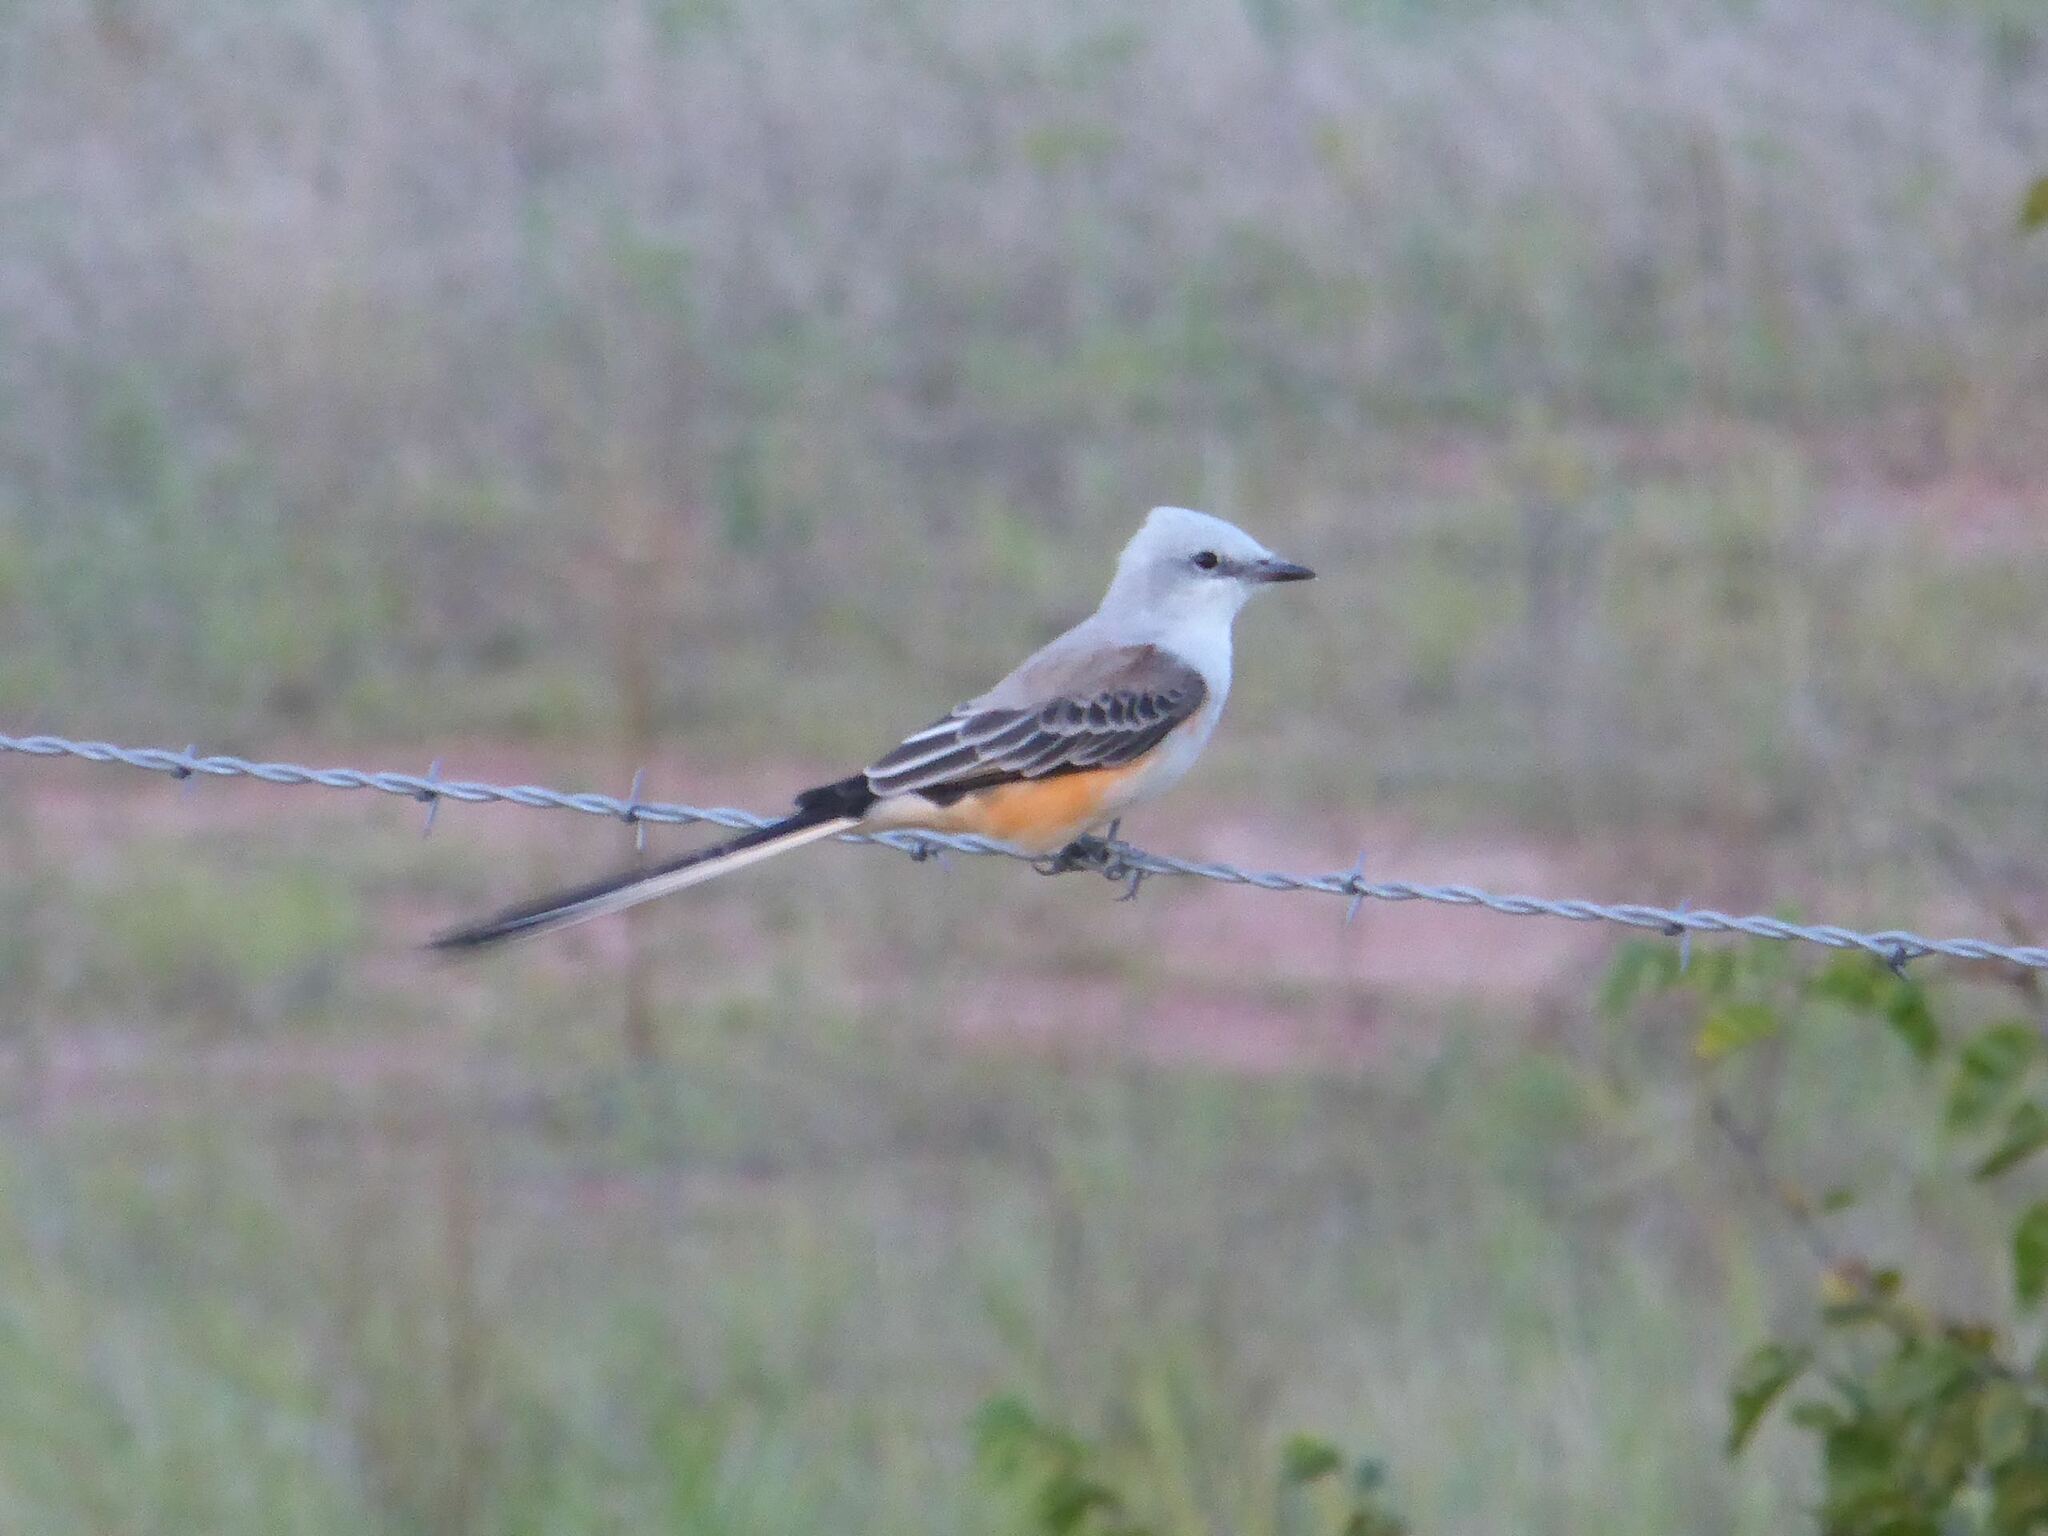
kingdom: Animalia
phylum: Chordata
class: Aves
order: Passeriformes
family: Tyrannidae
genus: Tyrannus
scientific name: Tyrannus forficatus
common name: Scissor-tailed flycatcher
